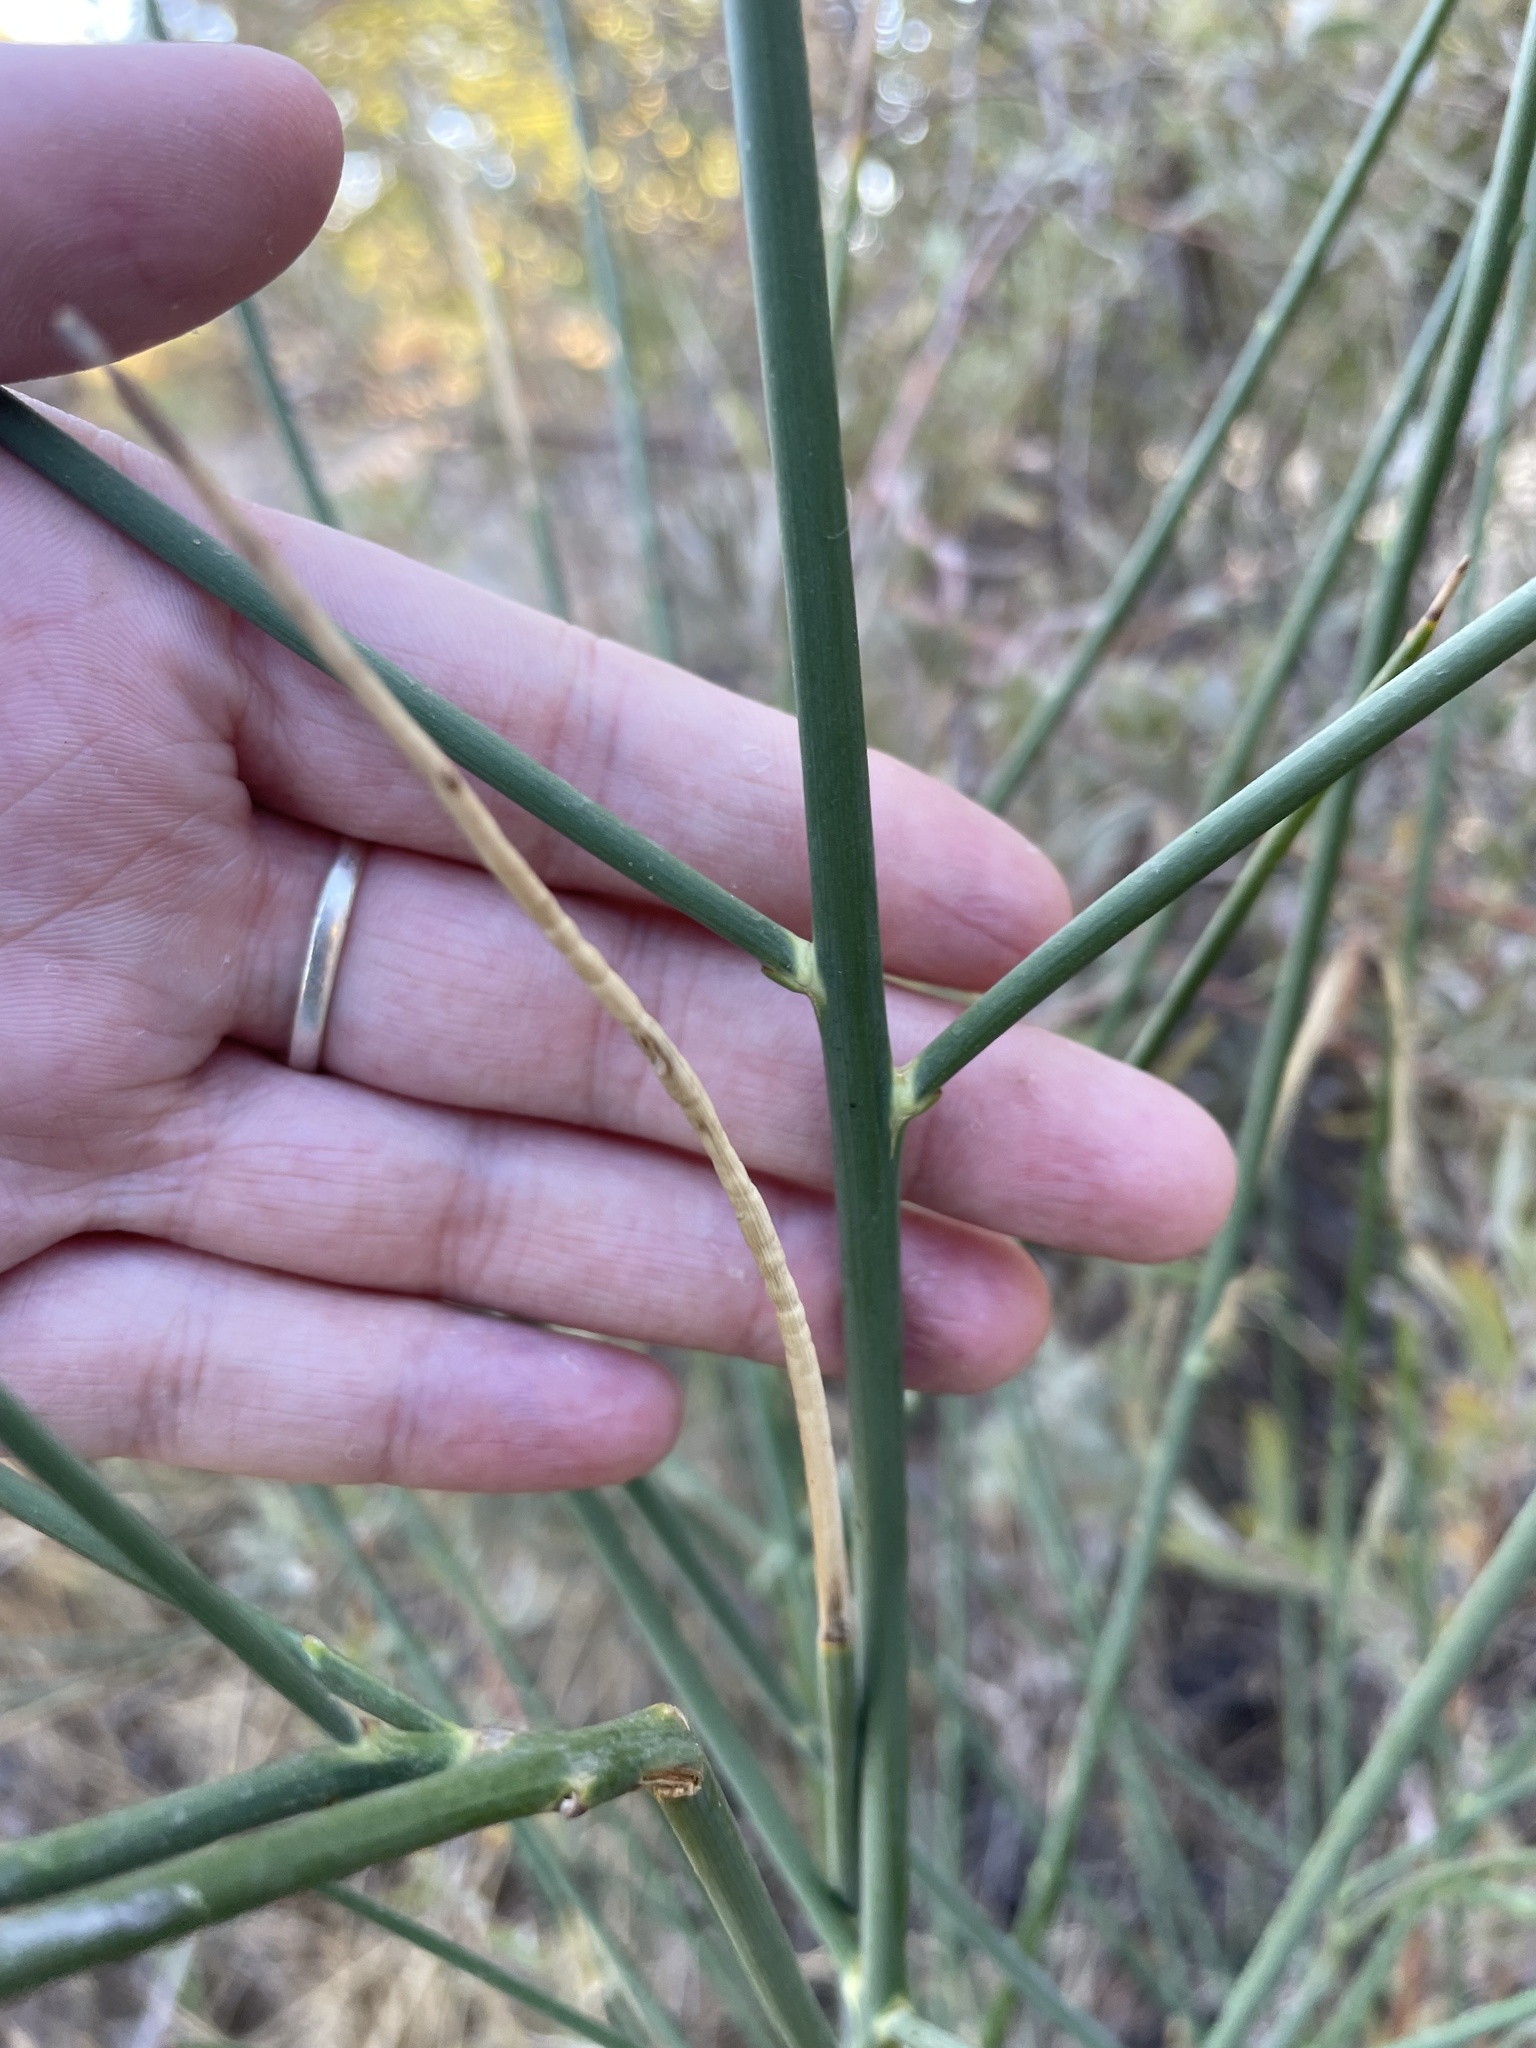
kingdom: Plantae
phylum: Tracheophyta
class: Magnoliopsida
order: Fabales
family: Fabaceae
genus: Spartium
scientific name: Spartium junceum
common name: Spanish broom
